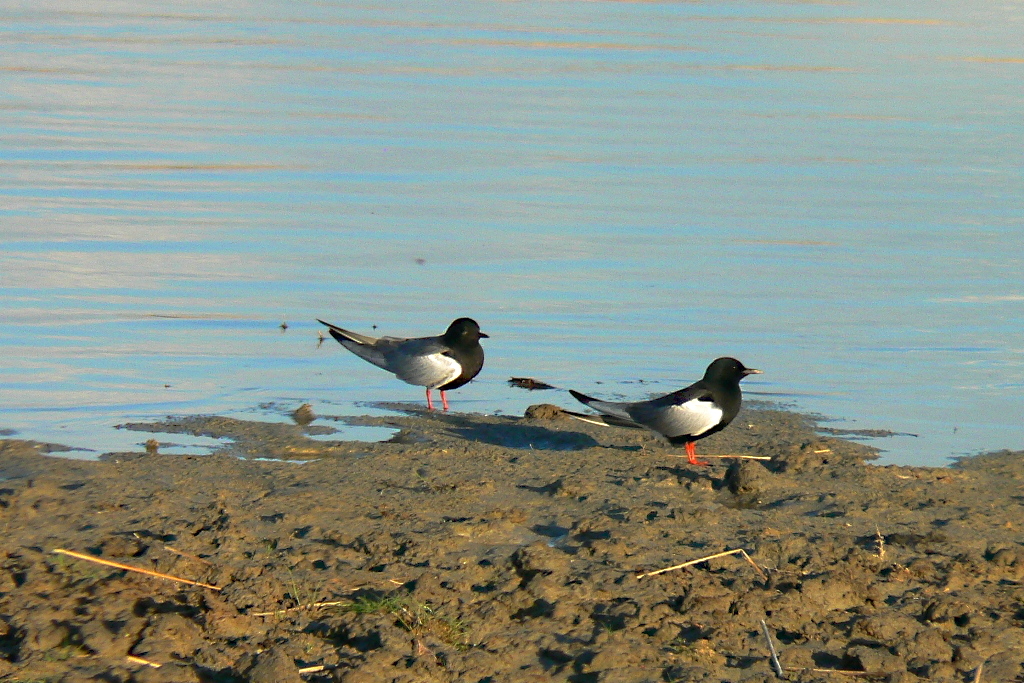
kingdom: Animalia
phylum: Chordata
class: Aves
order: Charadriiformes
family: Laridae
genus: Chlidonias
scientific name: Chlidonias leucopterus
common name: White-winged tern
